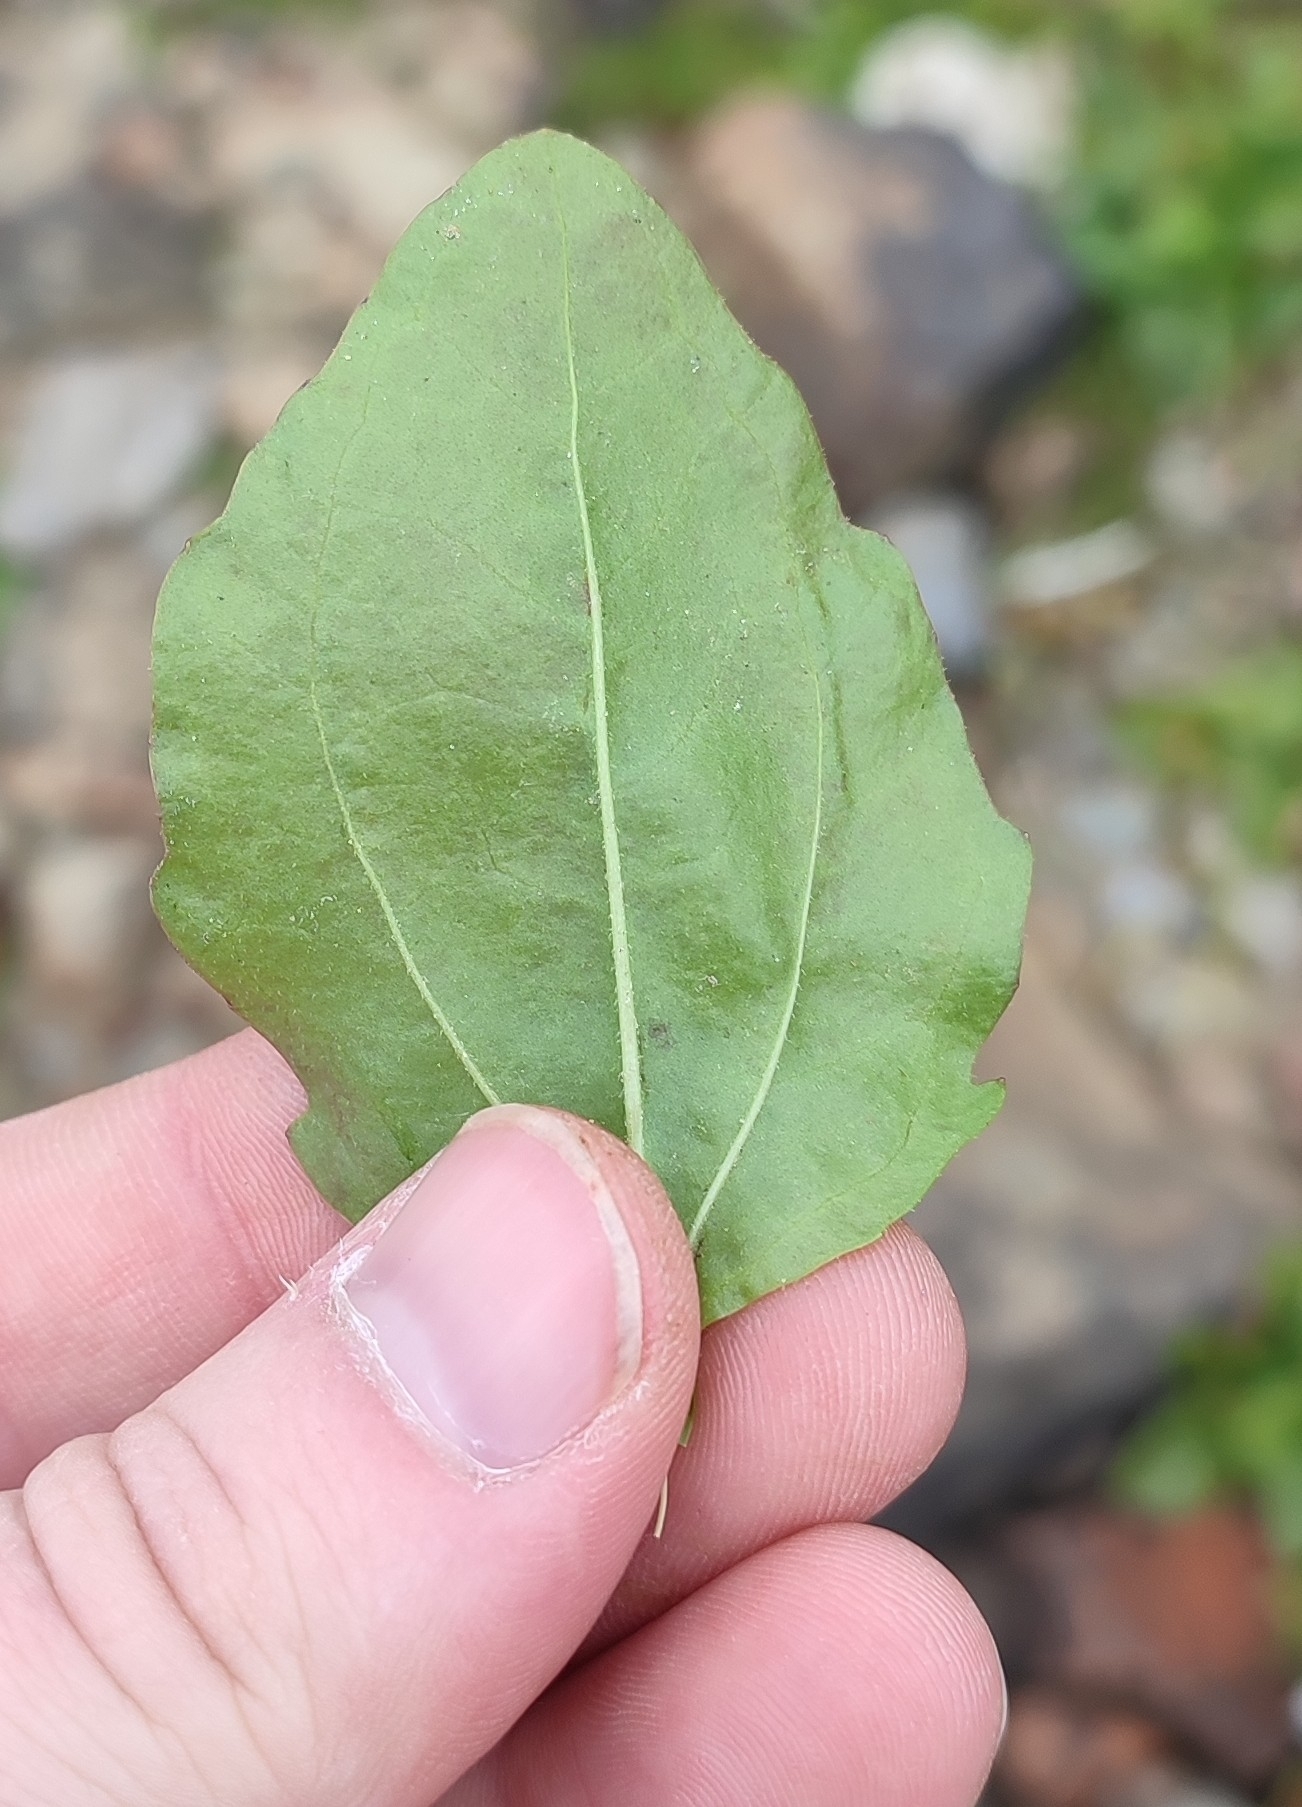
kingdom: Plantae
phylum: Tracheophyta
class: Magnoliopsida
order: Lamiales
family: Plantaginaceae
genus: Plantago
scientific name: Plantago uliginosa
